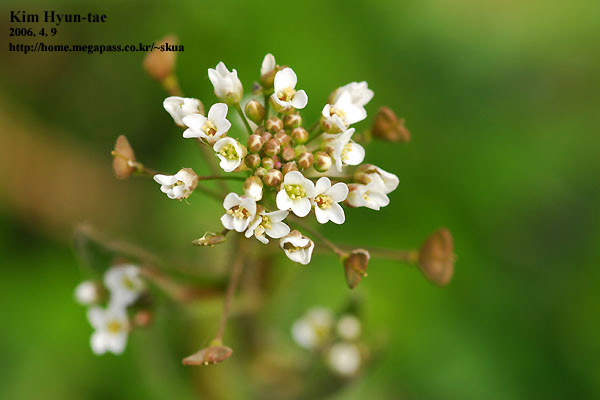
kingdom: Plantae
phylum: Tracheophyta
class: Magnoliopsida
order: Brassicales
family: Brassicaceae
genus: Capsella
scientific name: Capsella bursa-pastoris
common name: Shepherd's purse
